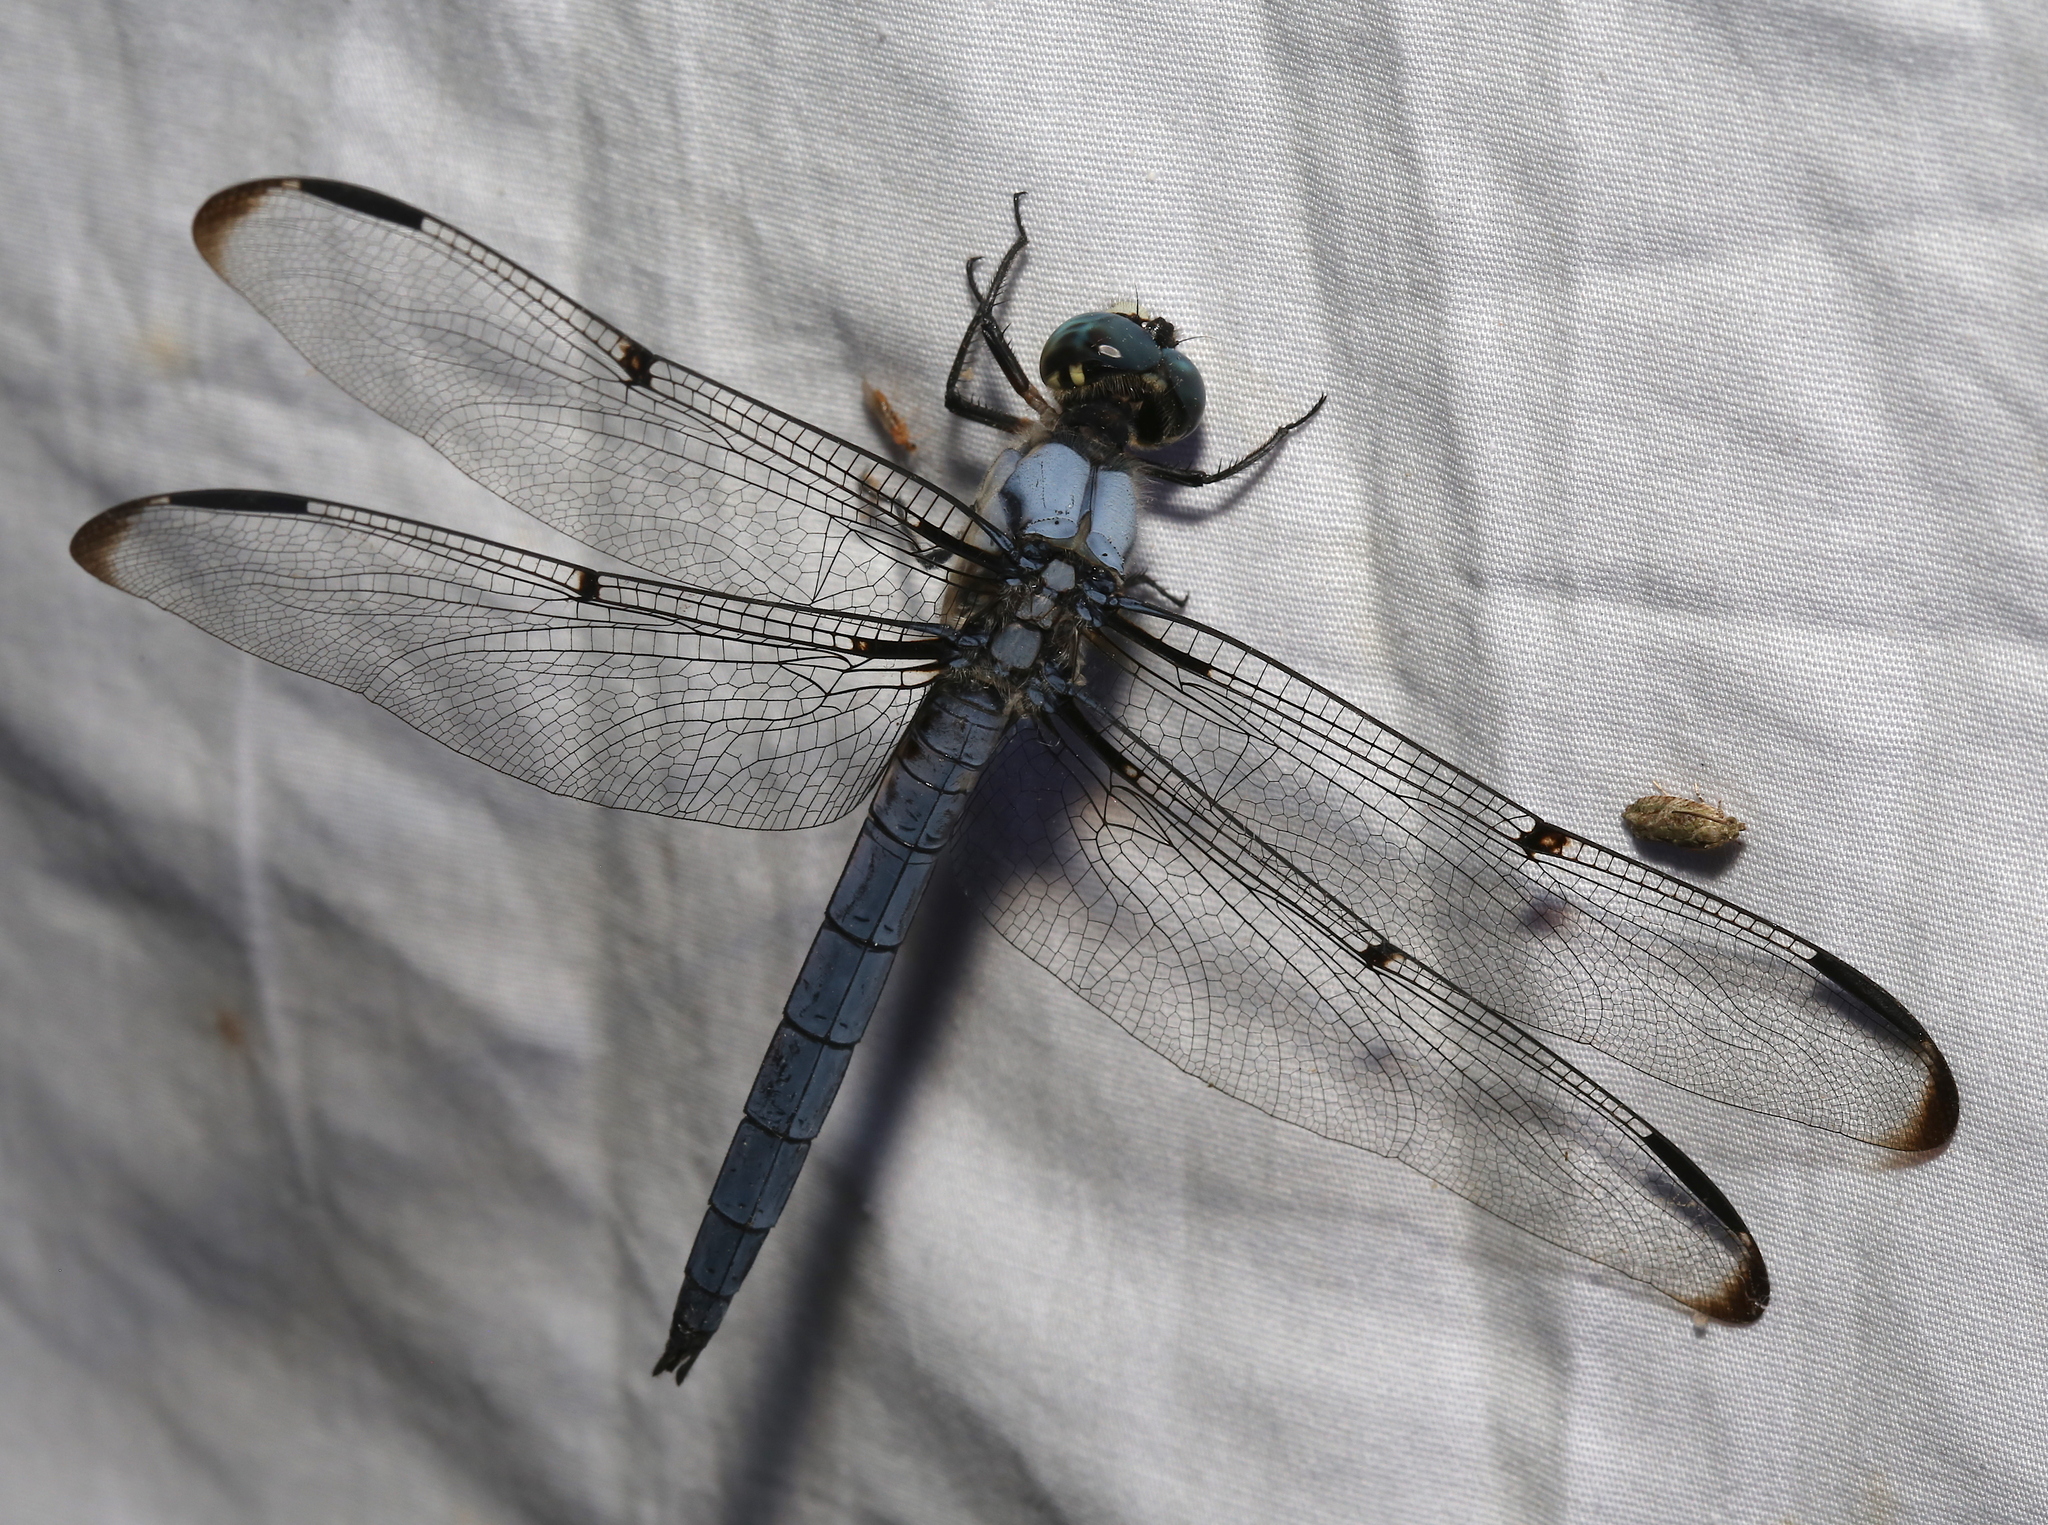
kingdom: Animalia
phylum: Arthropoda
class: Insecta
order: Odonata
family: Libellulidae
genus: Libellula
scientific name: Libellula vibrans
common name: Great blue skimmer
